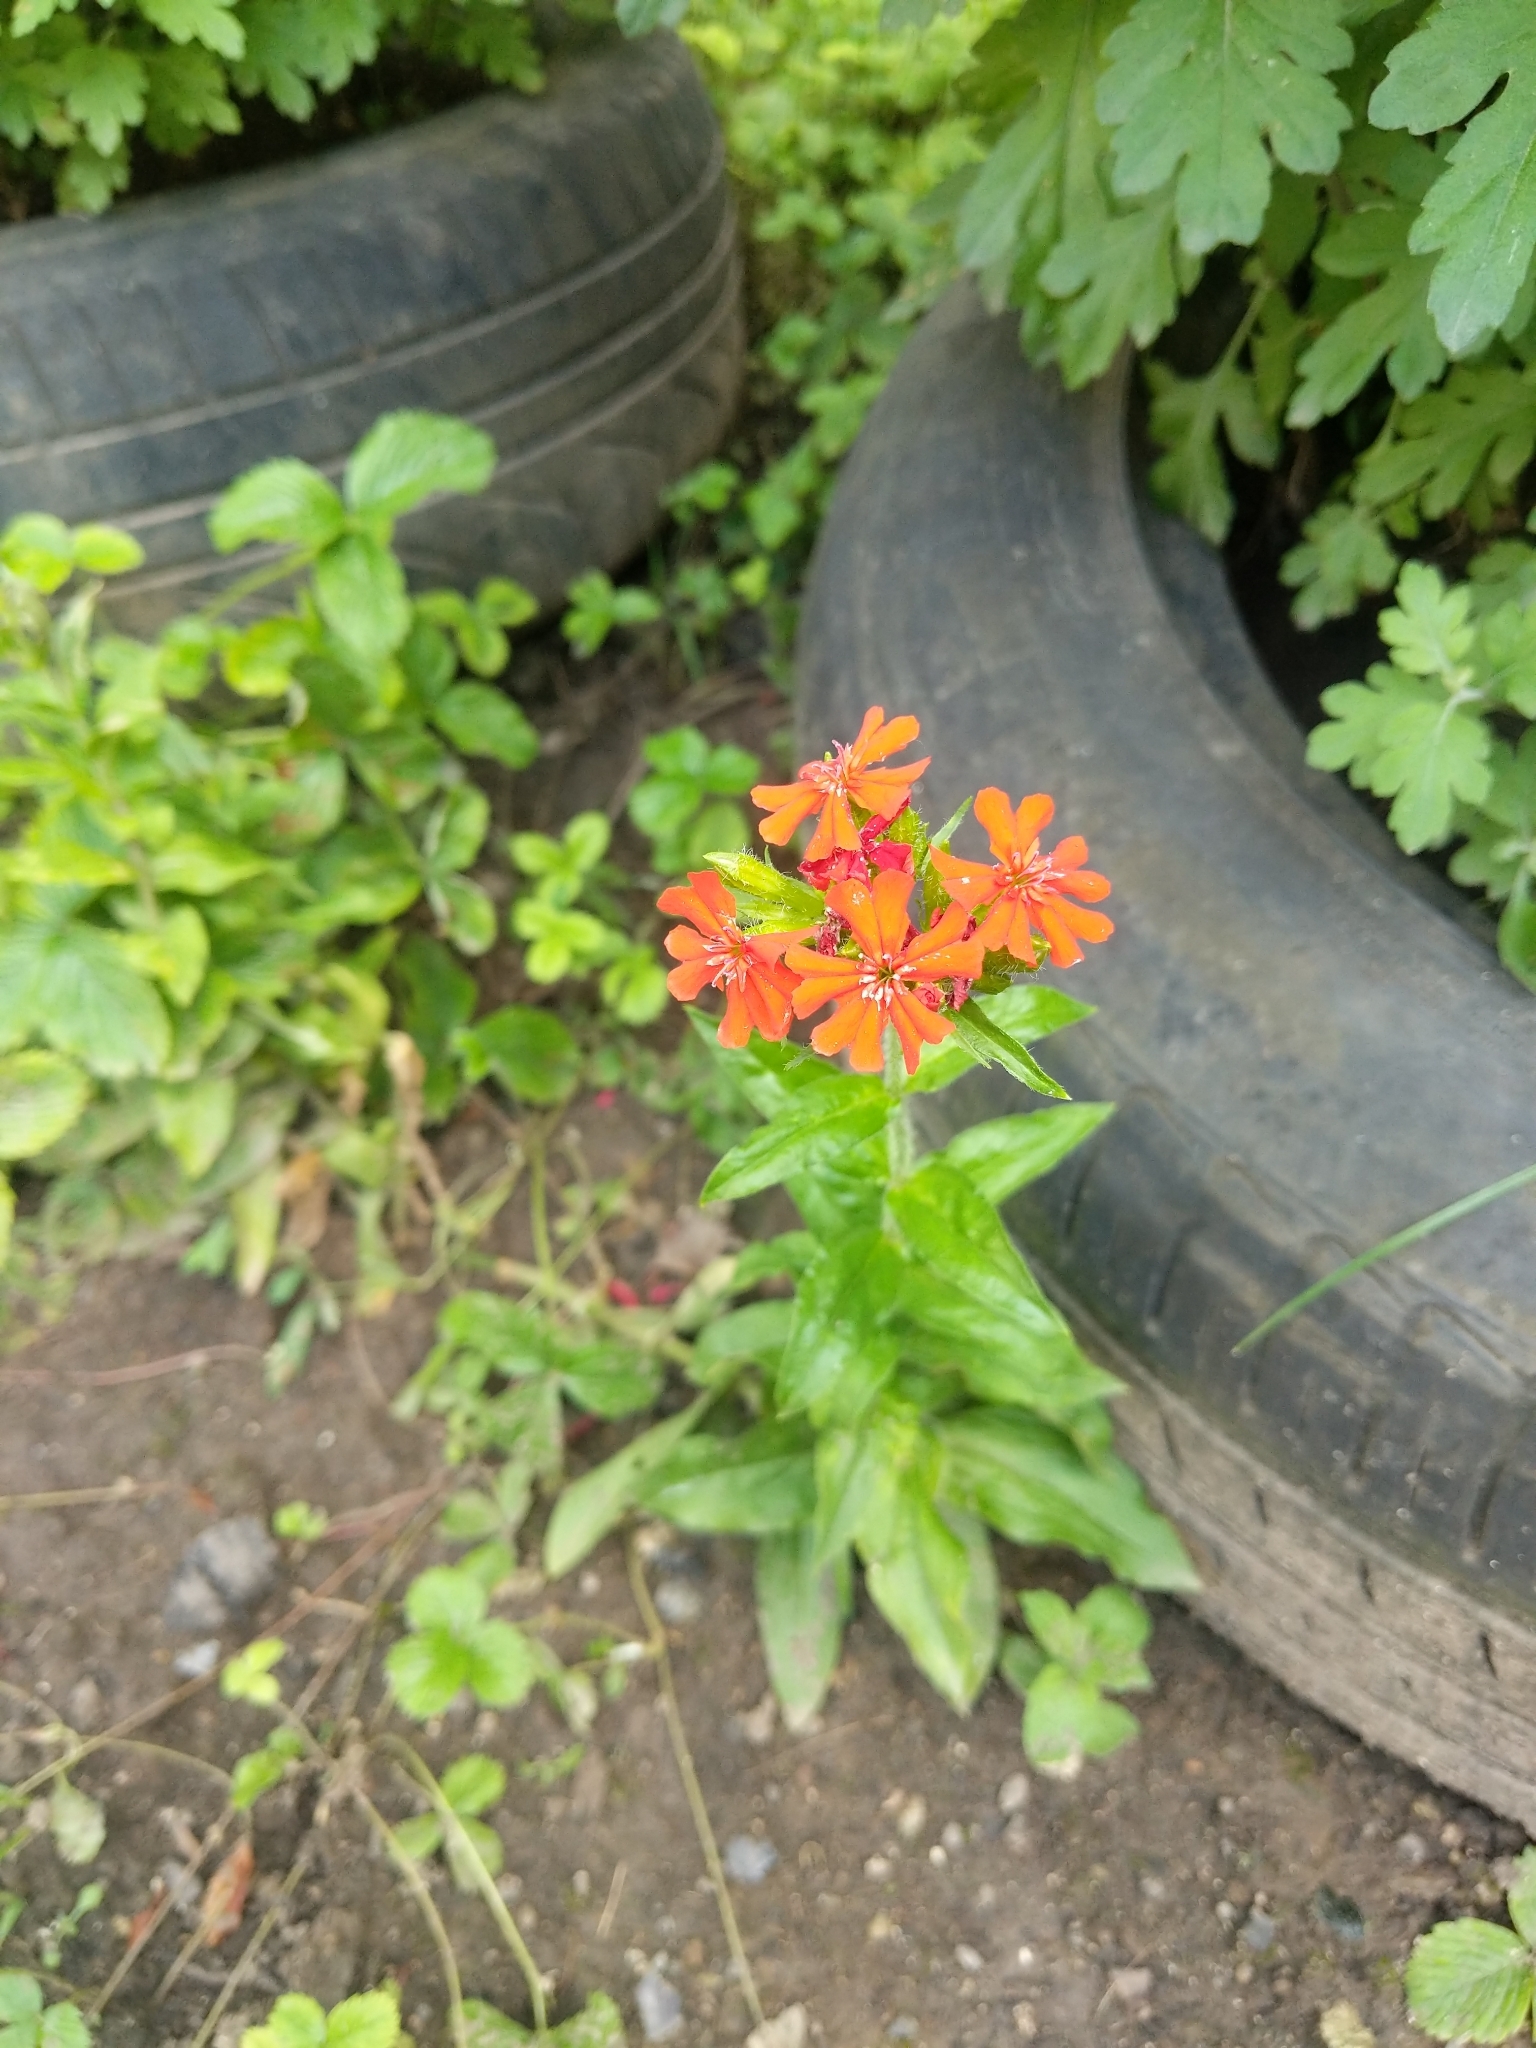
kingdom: Plantae
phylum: Tracheophyta
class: Magnoliopsida
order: Caryophyllales
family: Caryophyllaceae
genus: Silene
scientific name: Silene chalcedonica
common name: Maltese-cross
